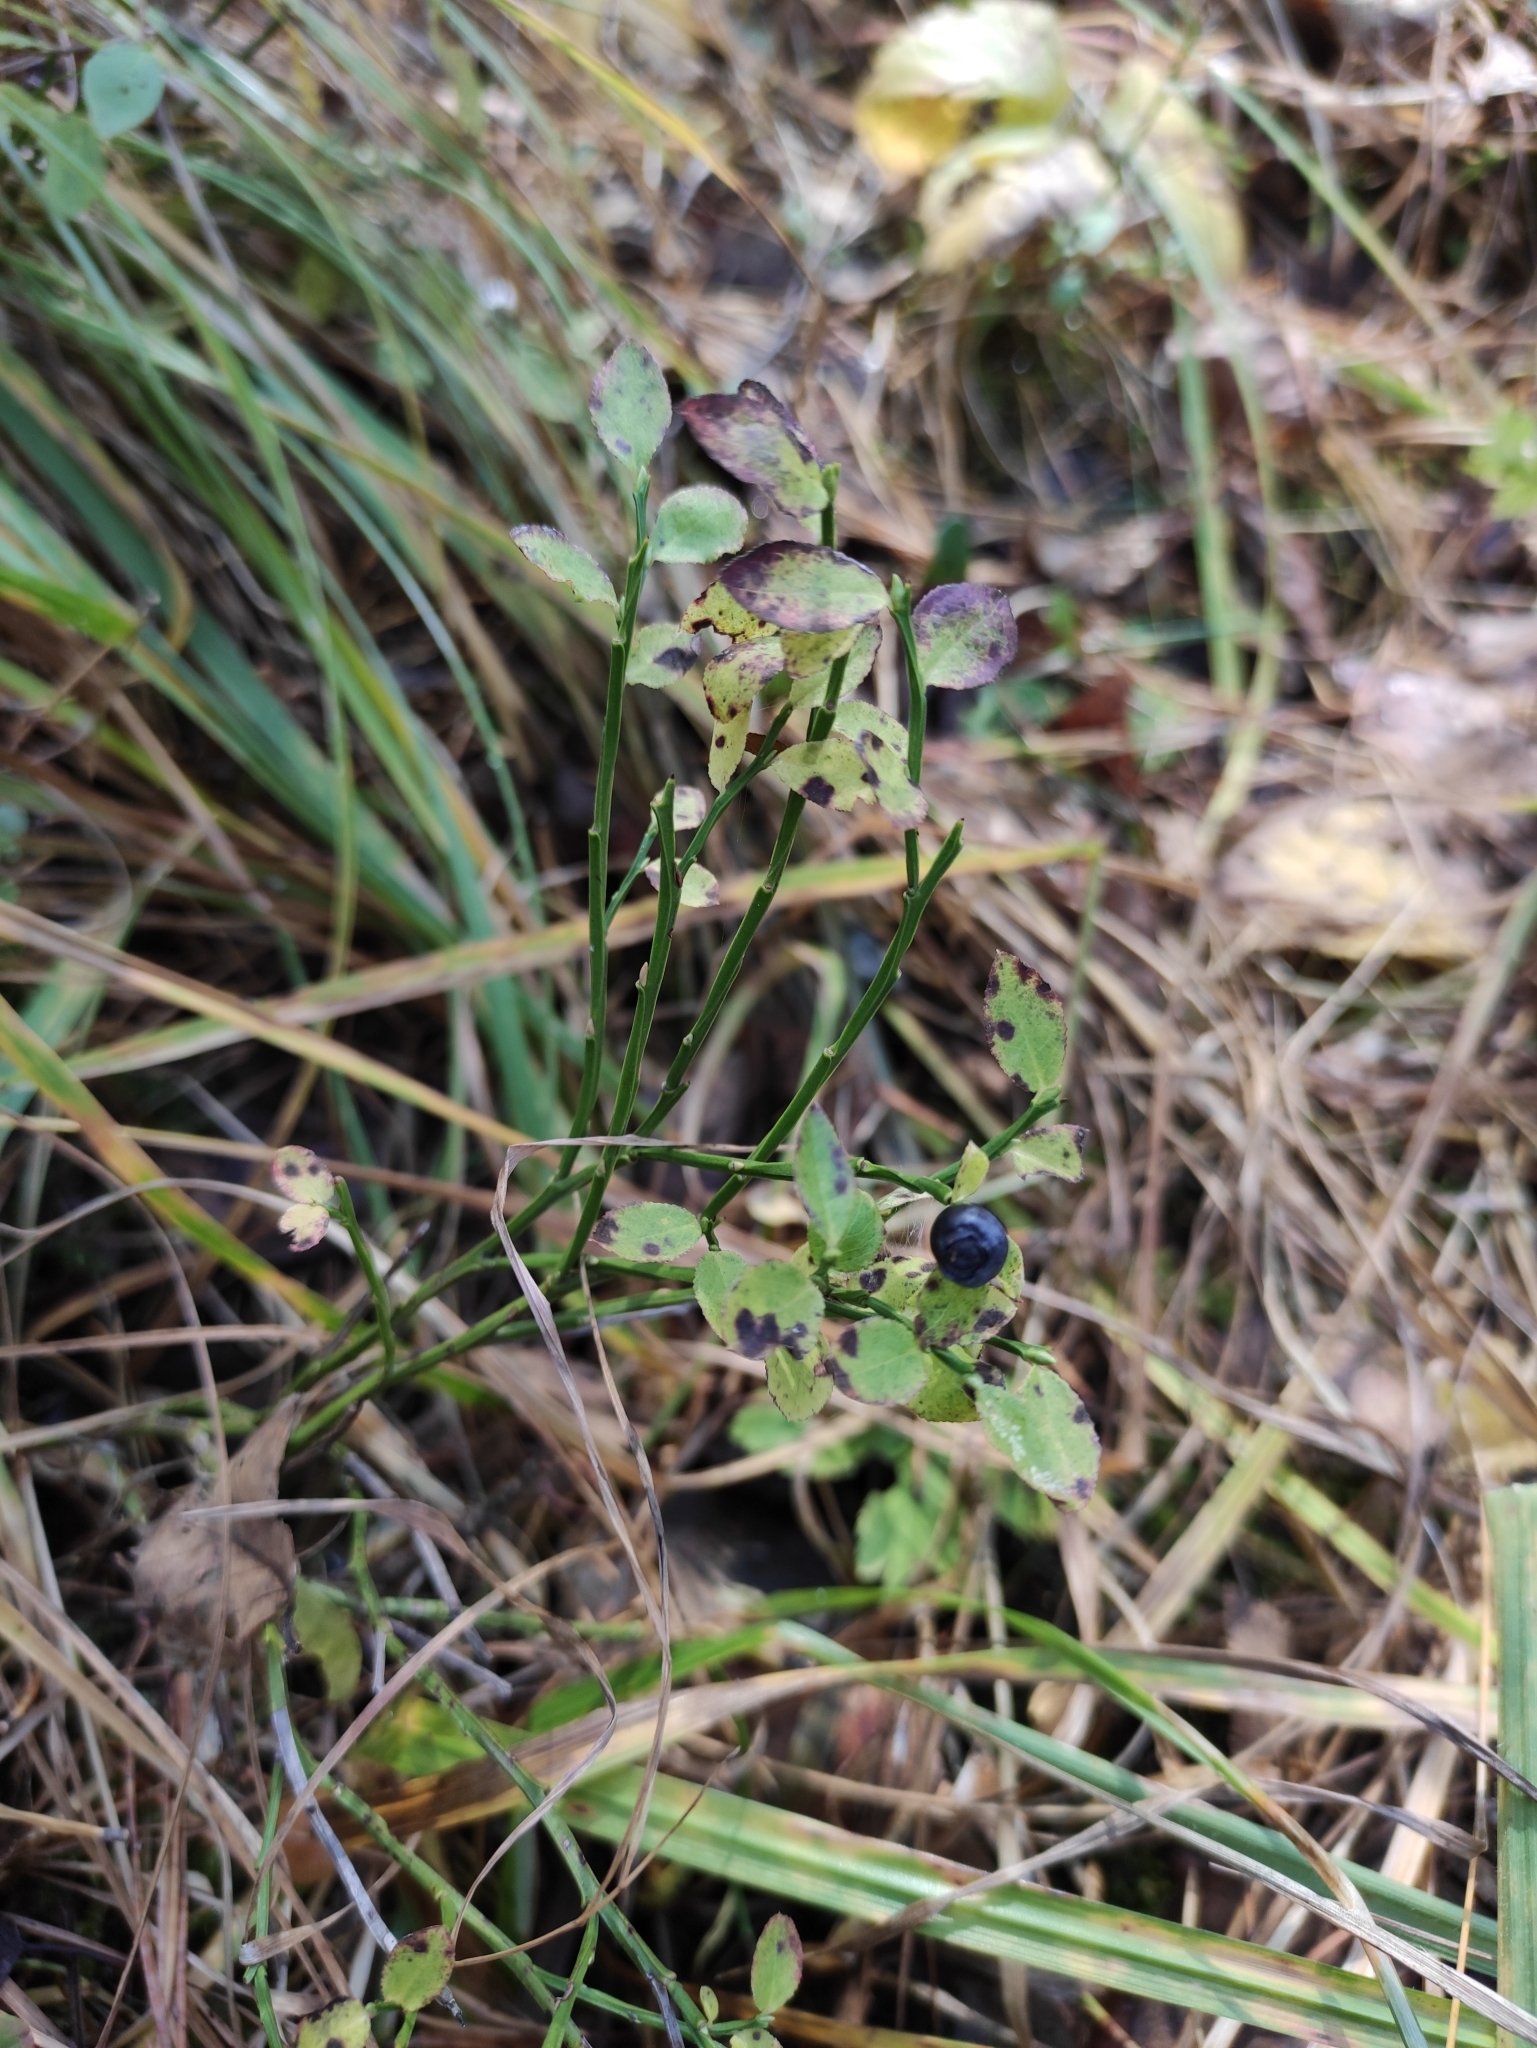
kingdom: Plantae
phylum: Tracheophyta
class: Magnoliopsida
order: Ericales
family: Ericaceae
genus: Vaccinium
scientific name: Vaccinium myrtillus
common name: Bilberry
